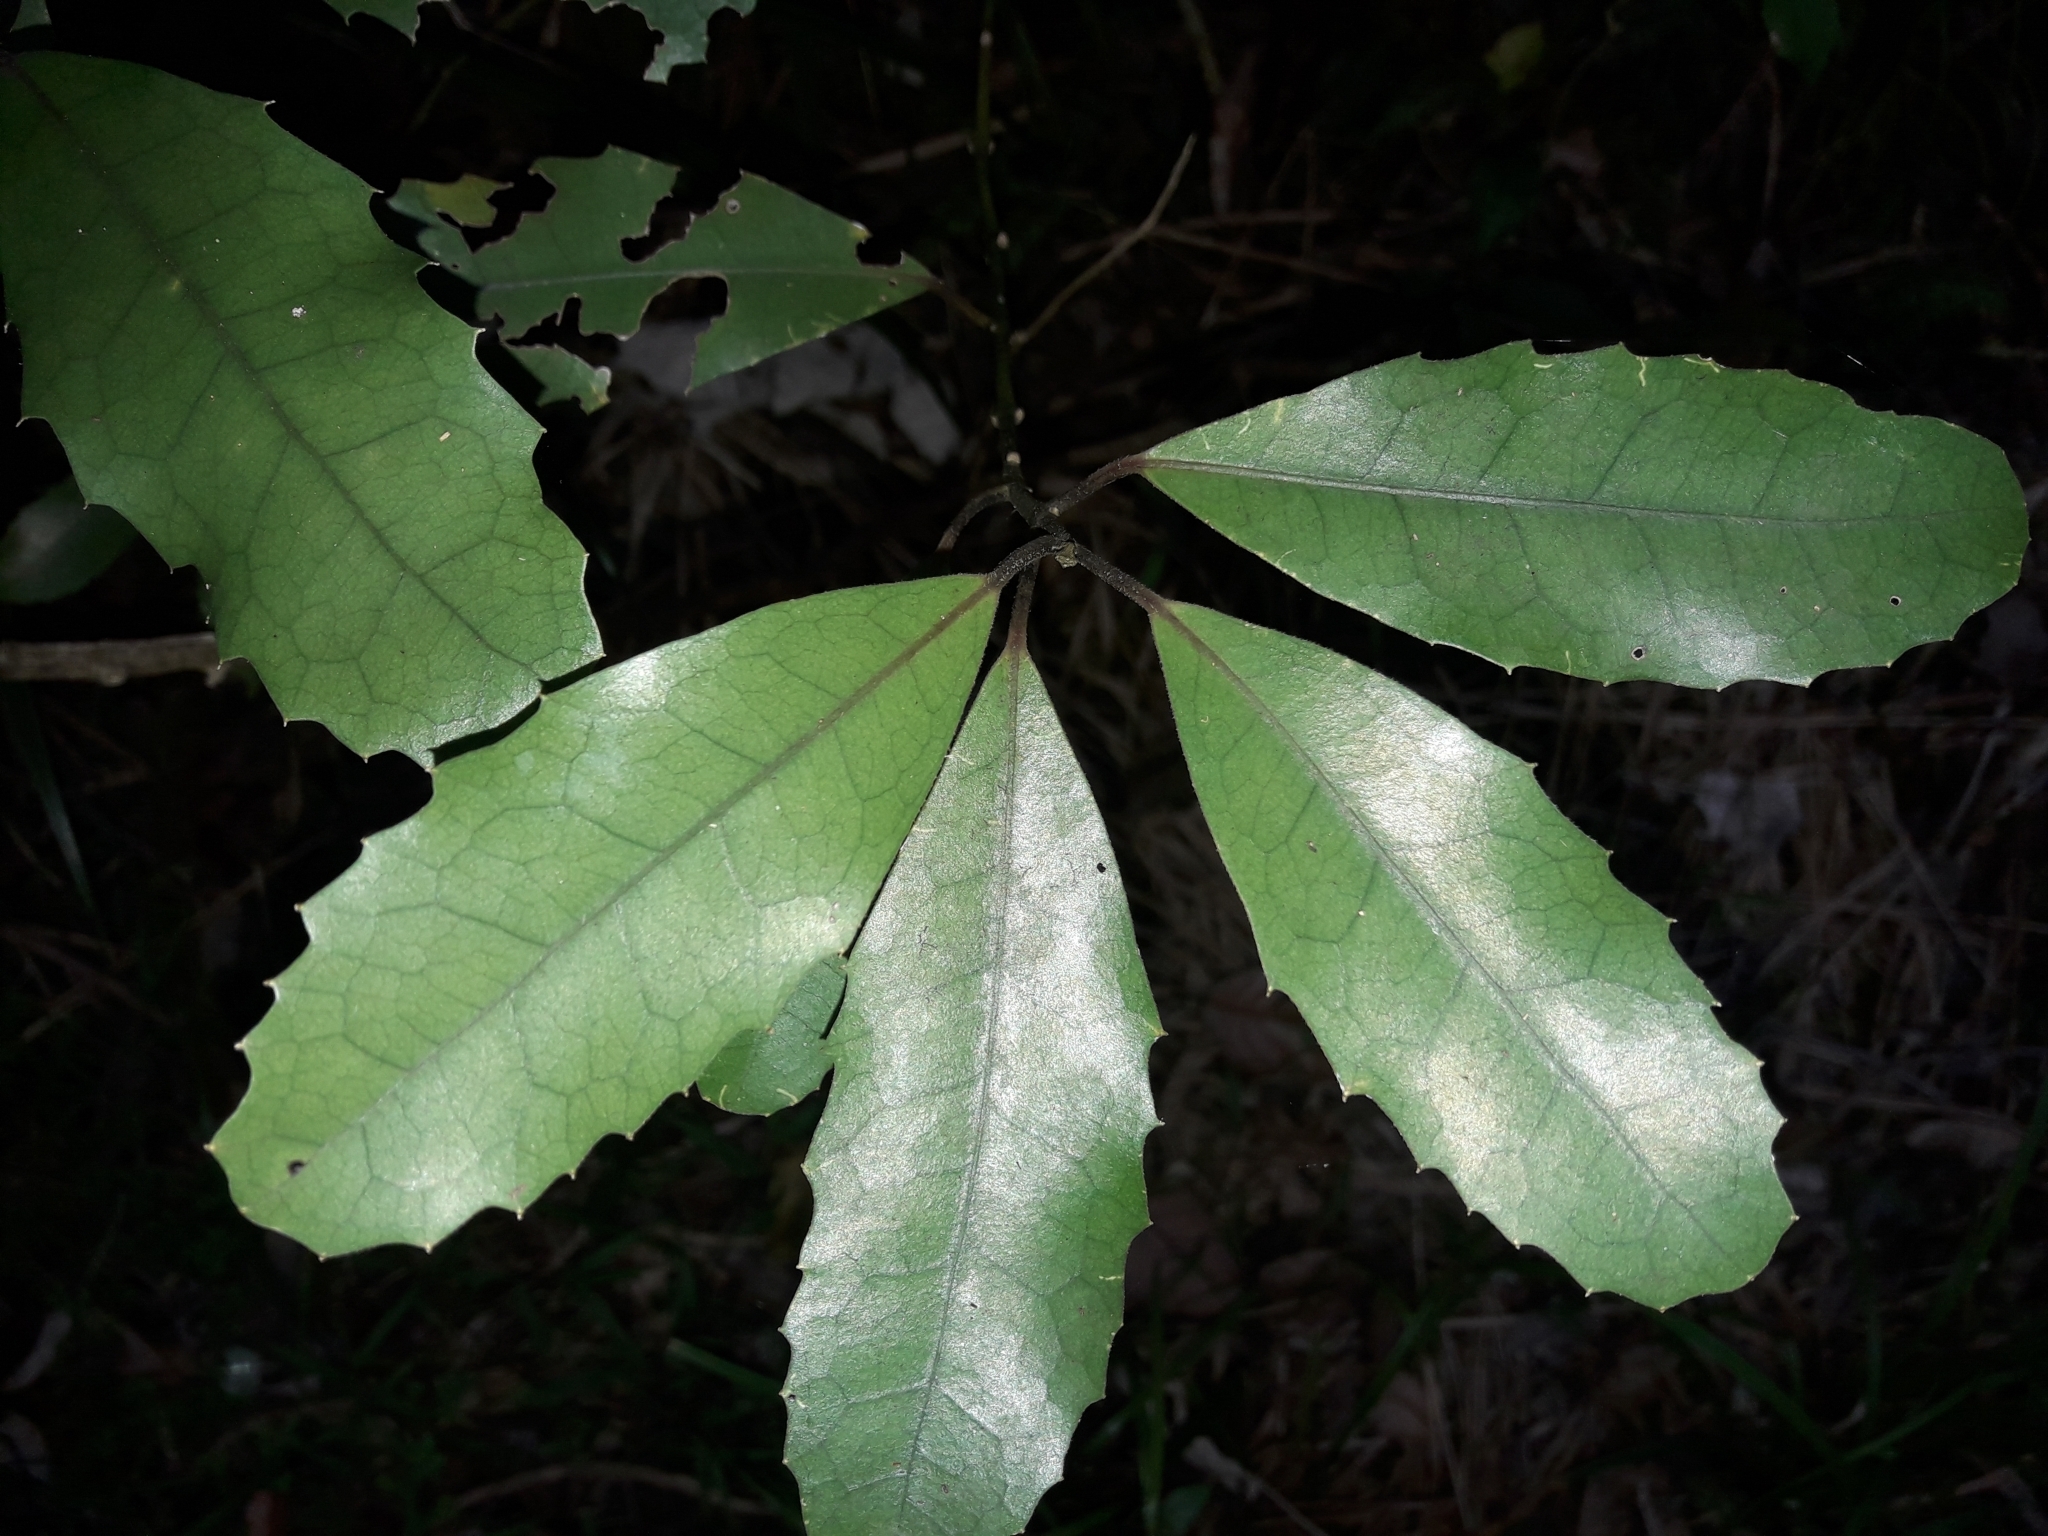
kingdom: Plantae
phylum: Tracheophyta
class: Magnoliopsida
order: Laurales
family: Monimiaceae
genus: Hedycarya
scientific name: Hedycarya arborea
